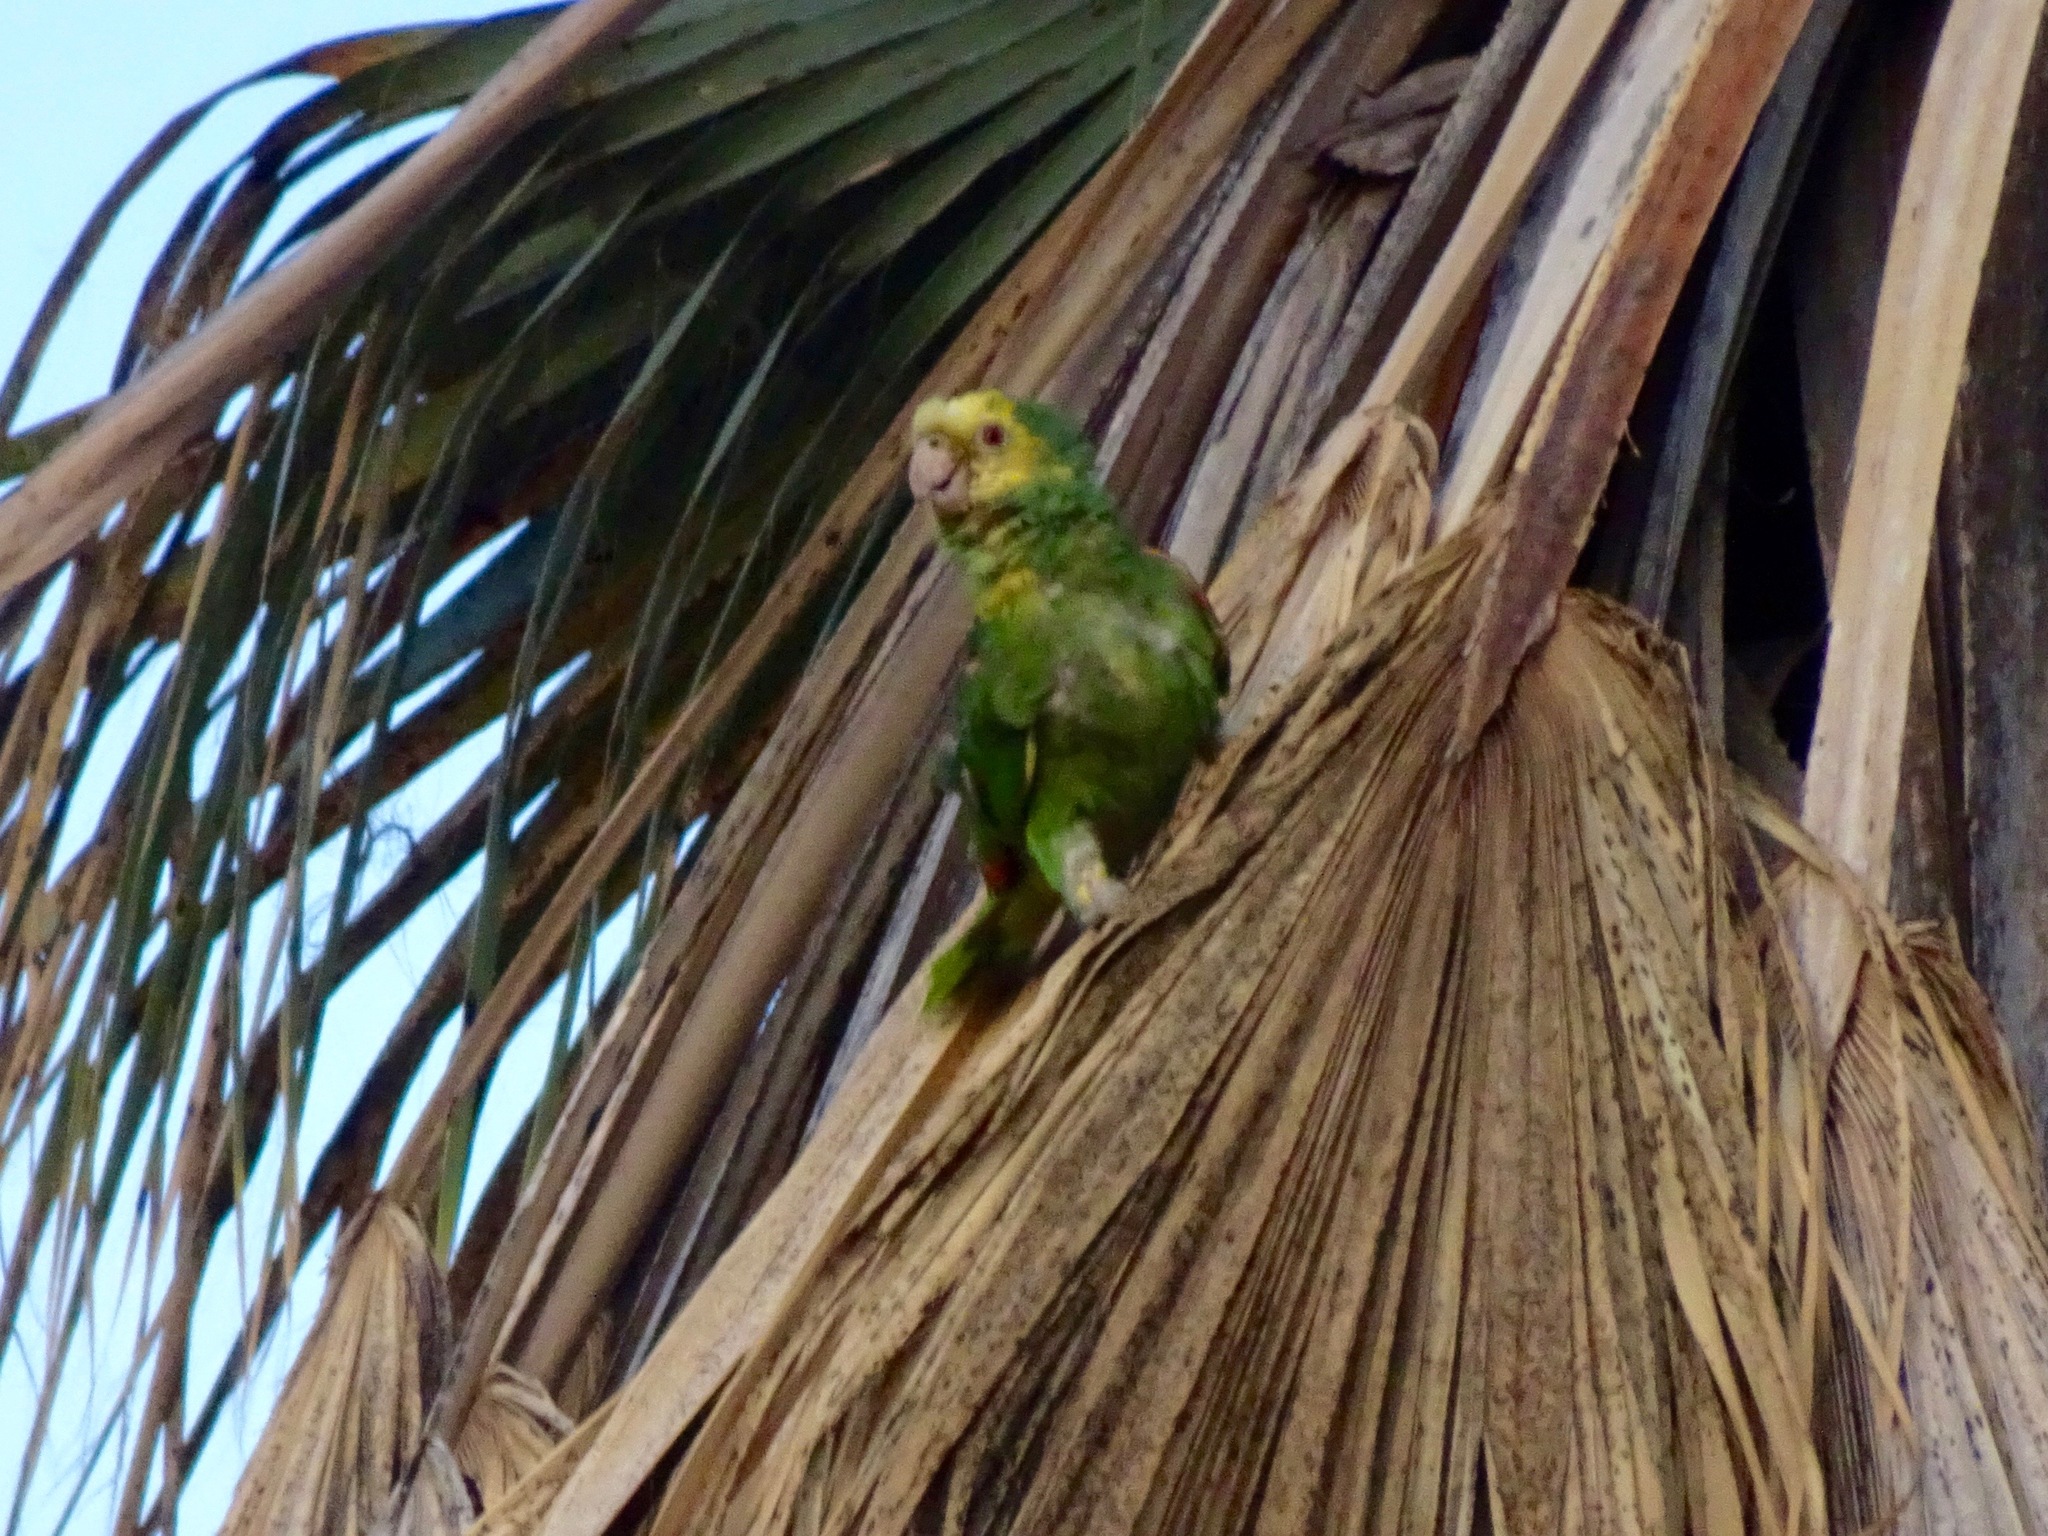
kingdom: Animalia
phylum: Chordata
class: Aves
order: Psittaciformes
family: Psittacidae
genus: Amazona
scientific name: Amazona oratrix
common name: Yellow-headed amazon
